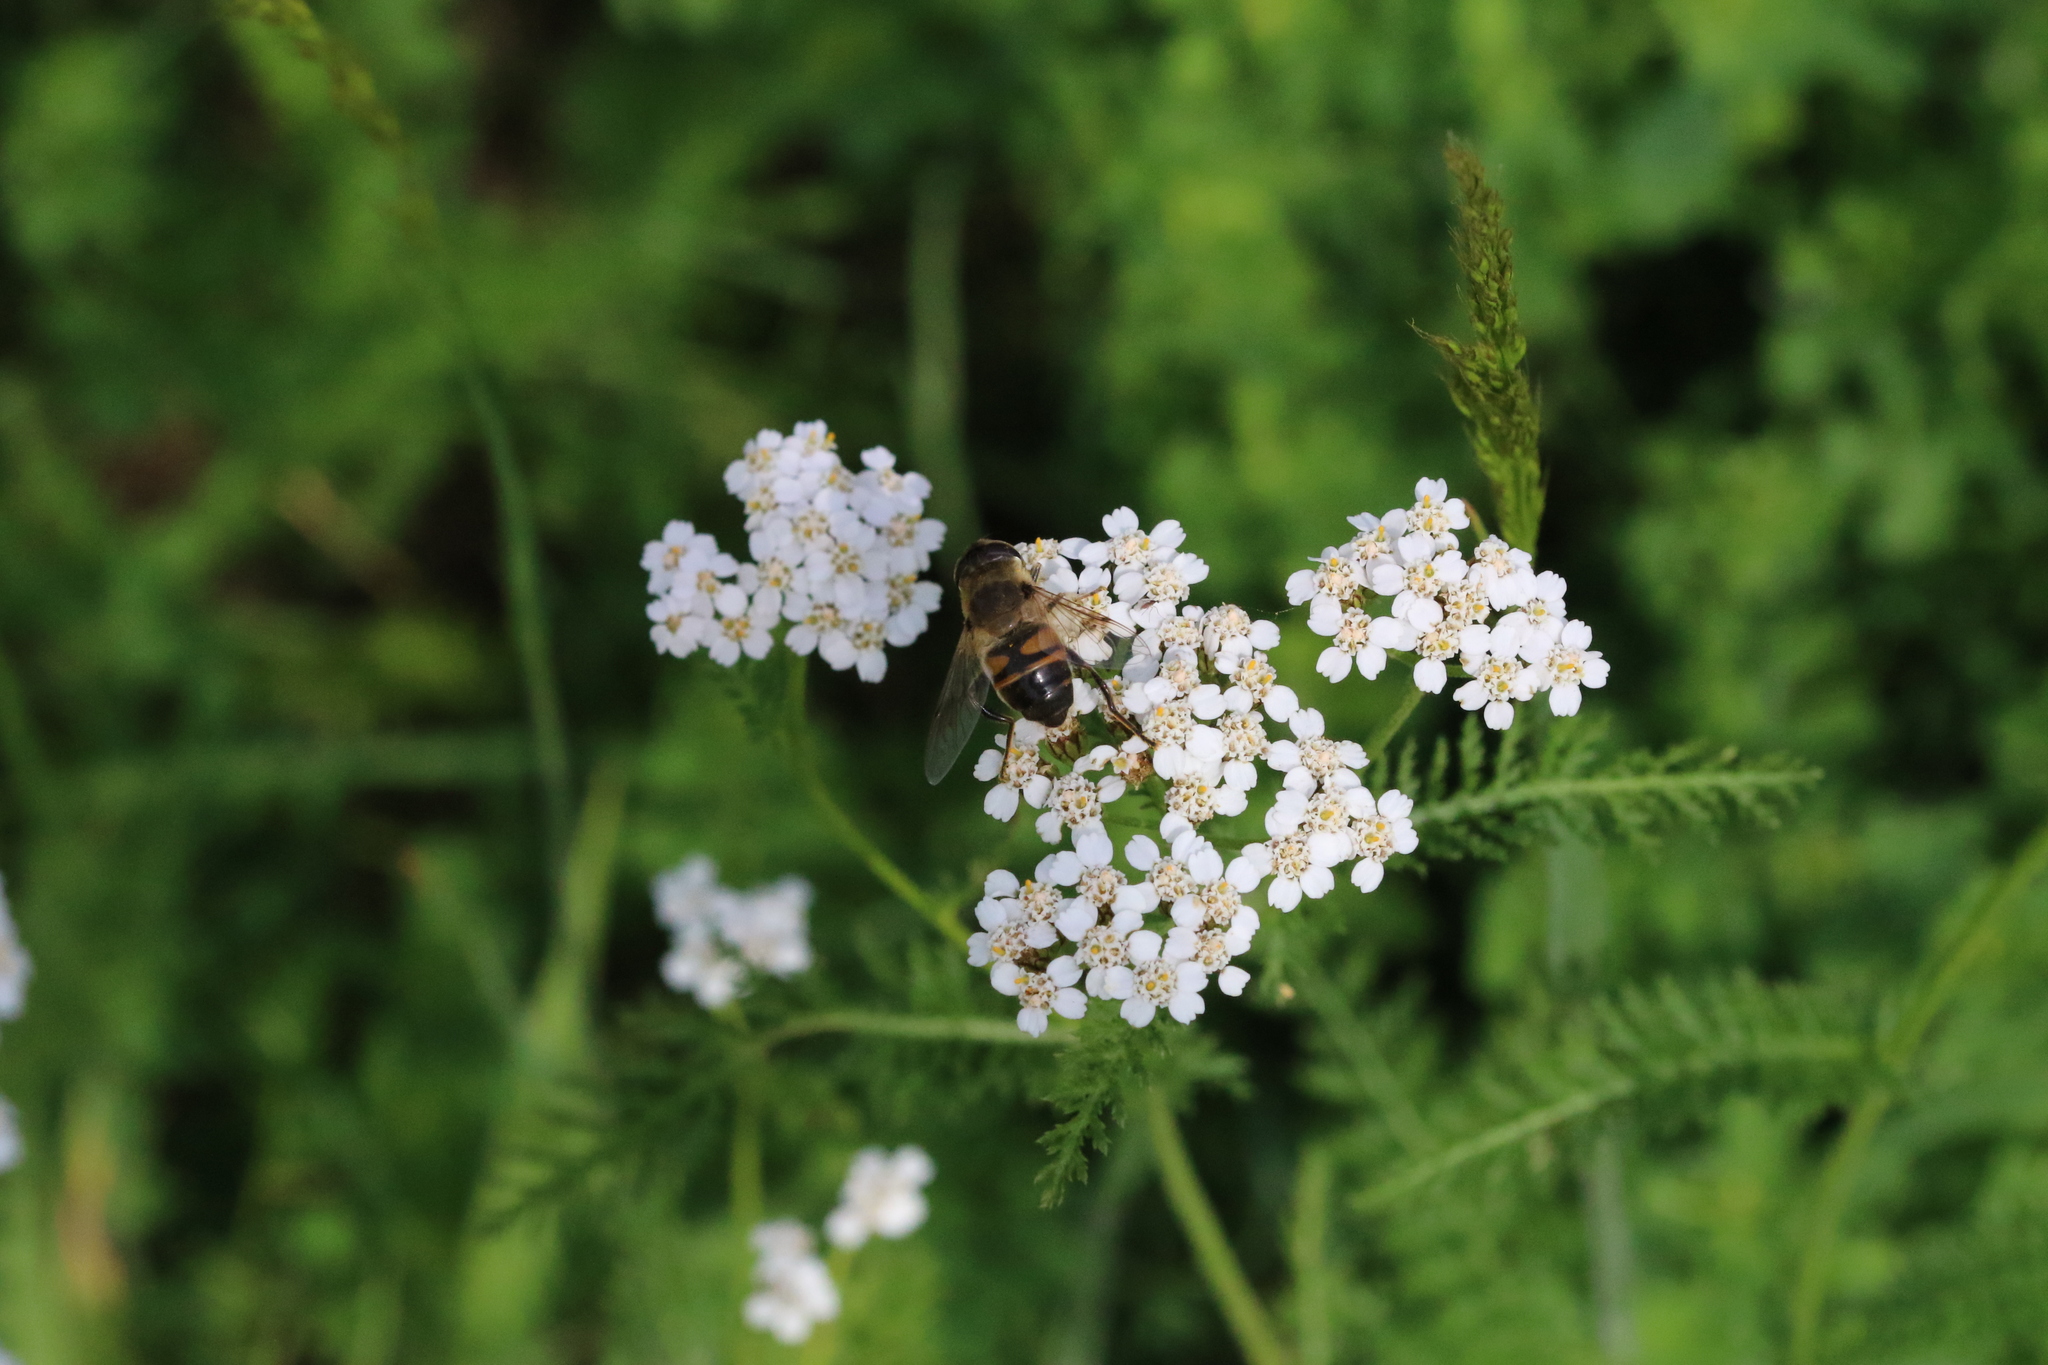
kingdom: Animalia
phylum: Arthropoda
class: Insecta
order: Diptera
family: Syrphidae
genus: Eristalis
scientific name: Eristalis tenax
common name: Drone fly
